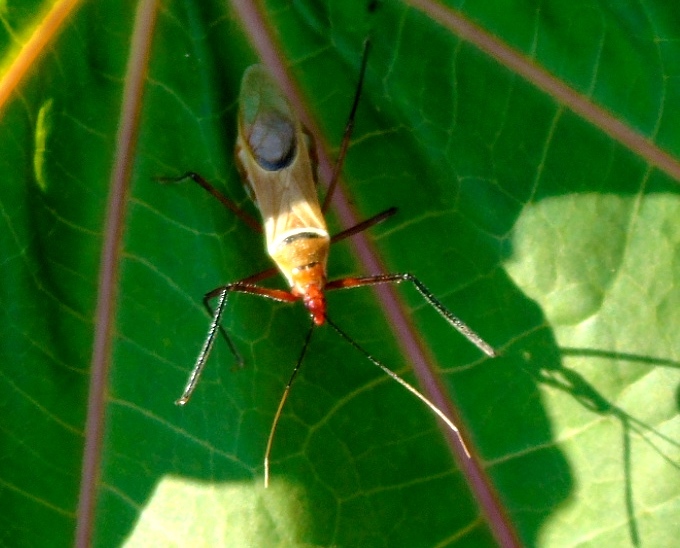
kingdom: Animalia
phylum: Arthropoda
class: Insecta
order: Hemiptera
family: Reduviidae
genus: Zelus
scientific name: Zelus grassans
